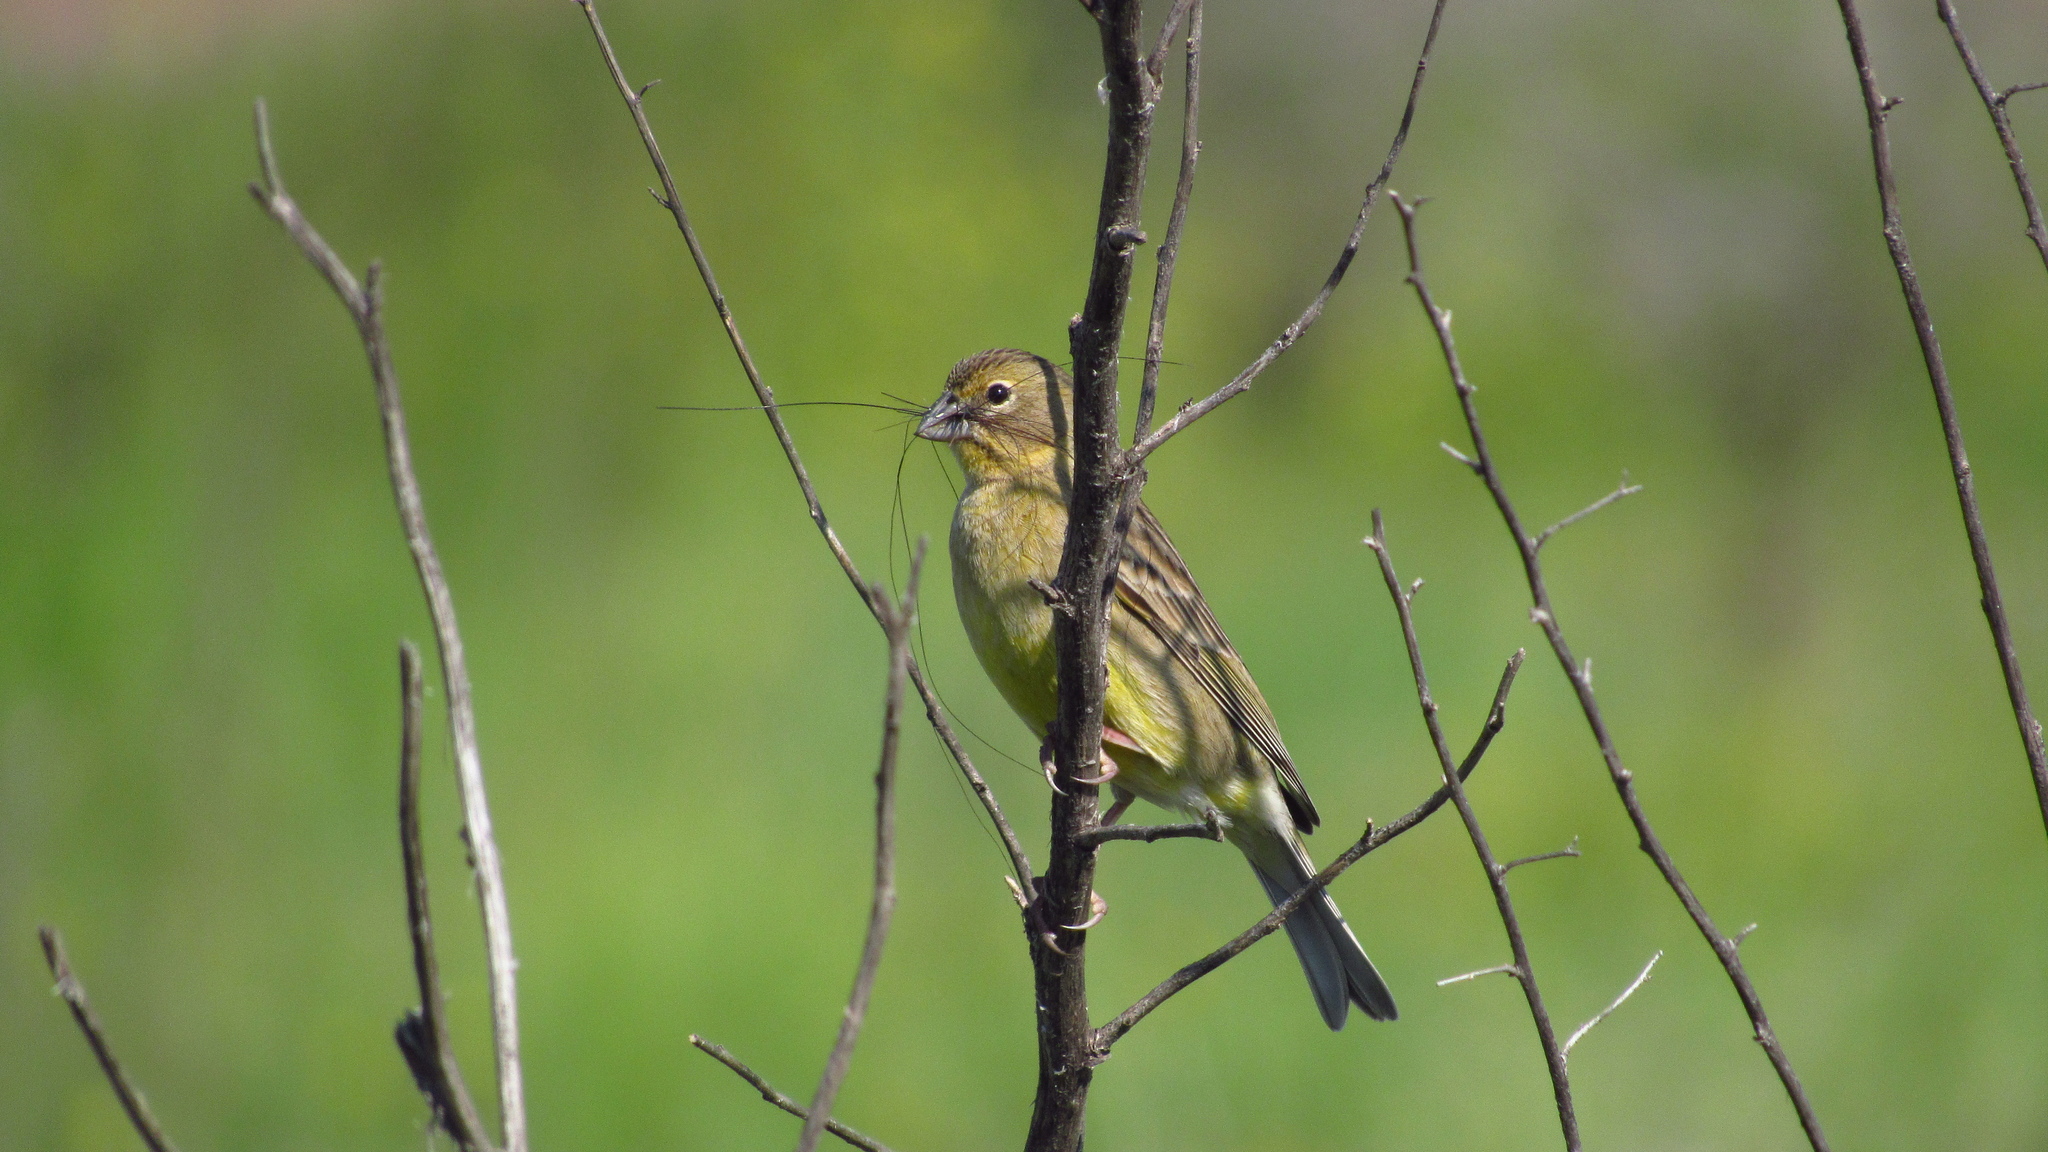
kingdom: Animalia
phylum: Chordata
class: Aves
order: Passeriformes
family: Thraupidae
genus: Sicalis
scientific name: Sicalis luteola
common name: Grassland yellow-finch
